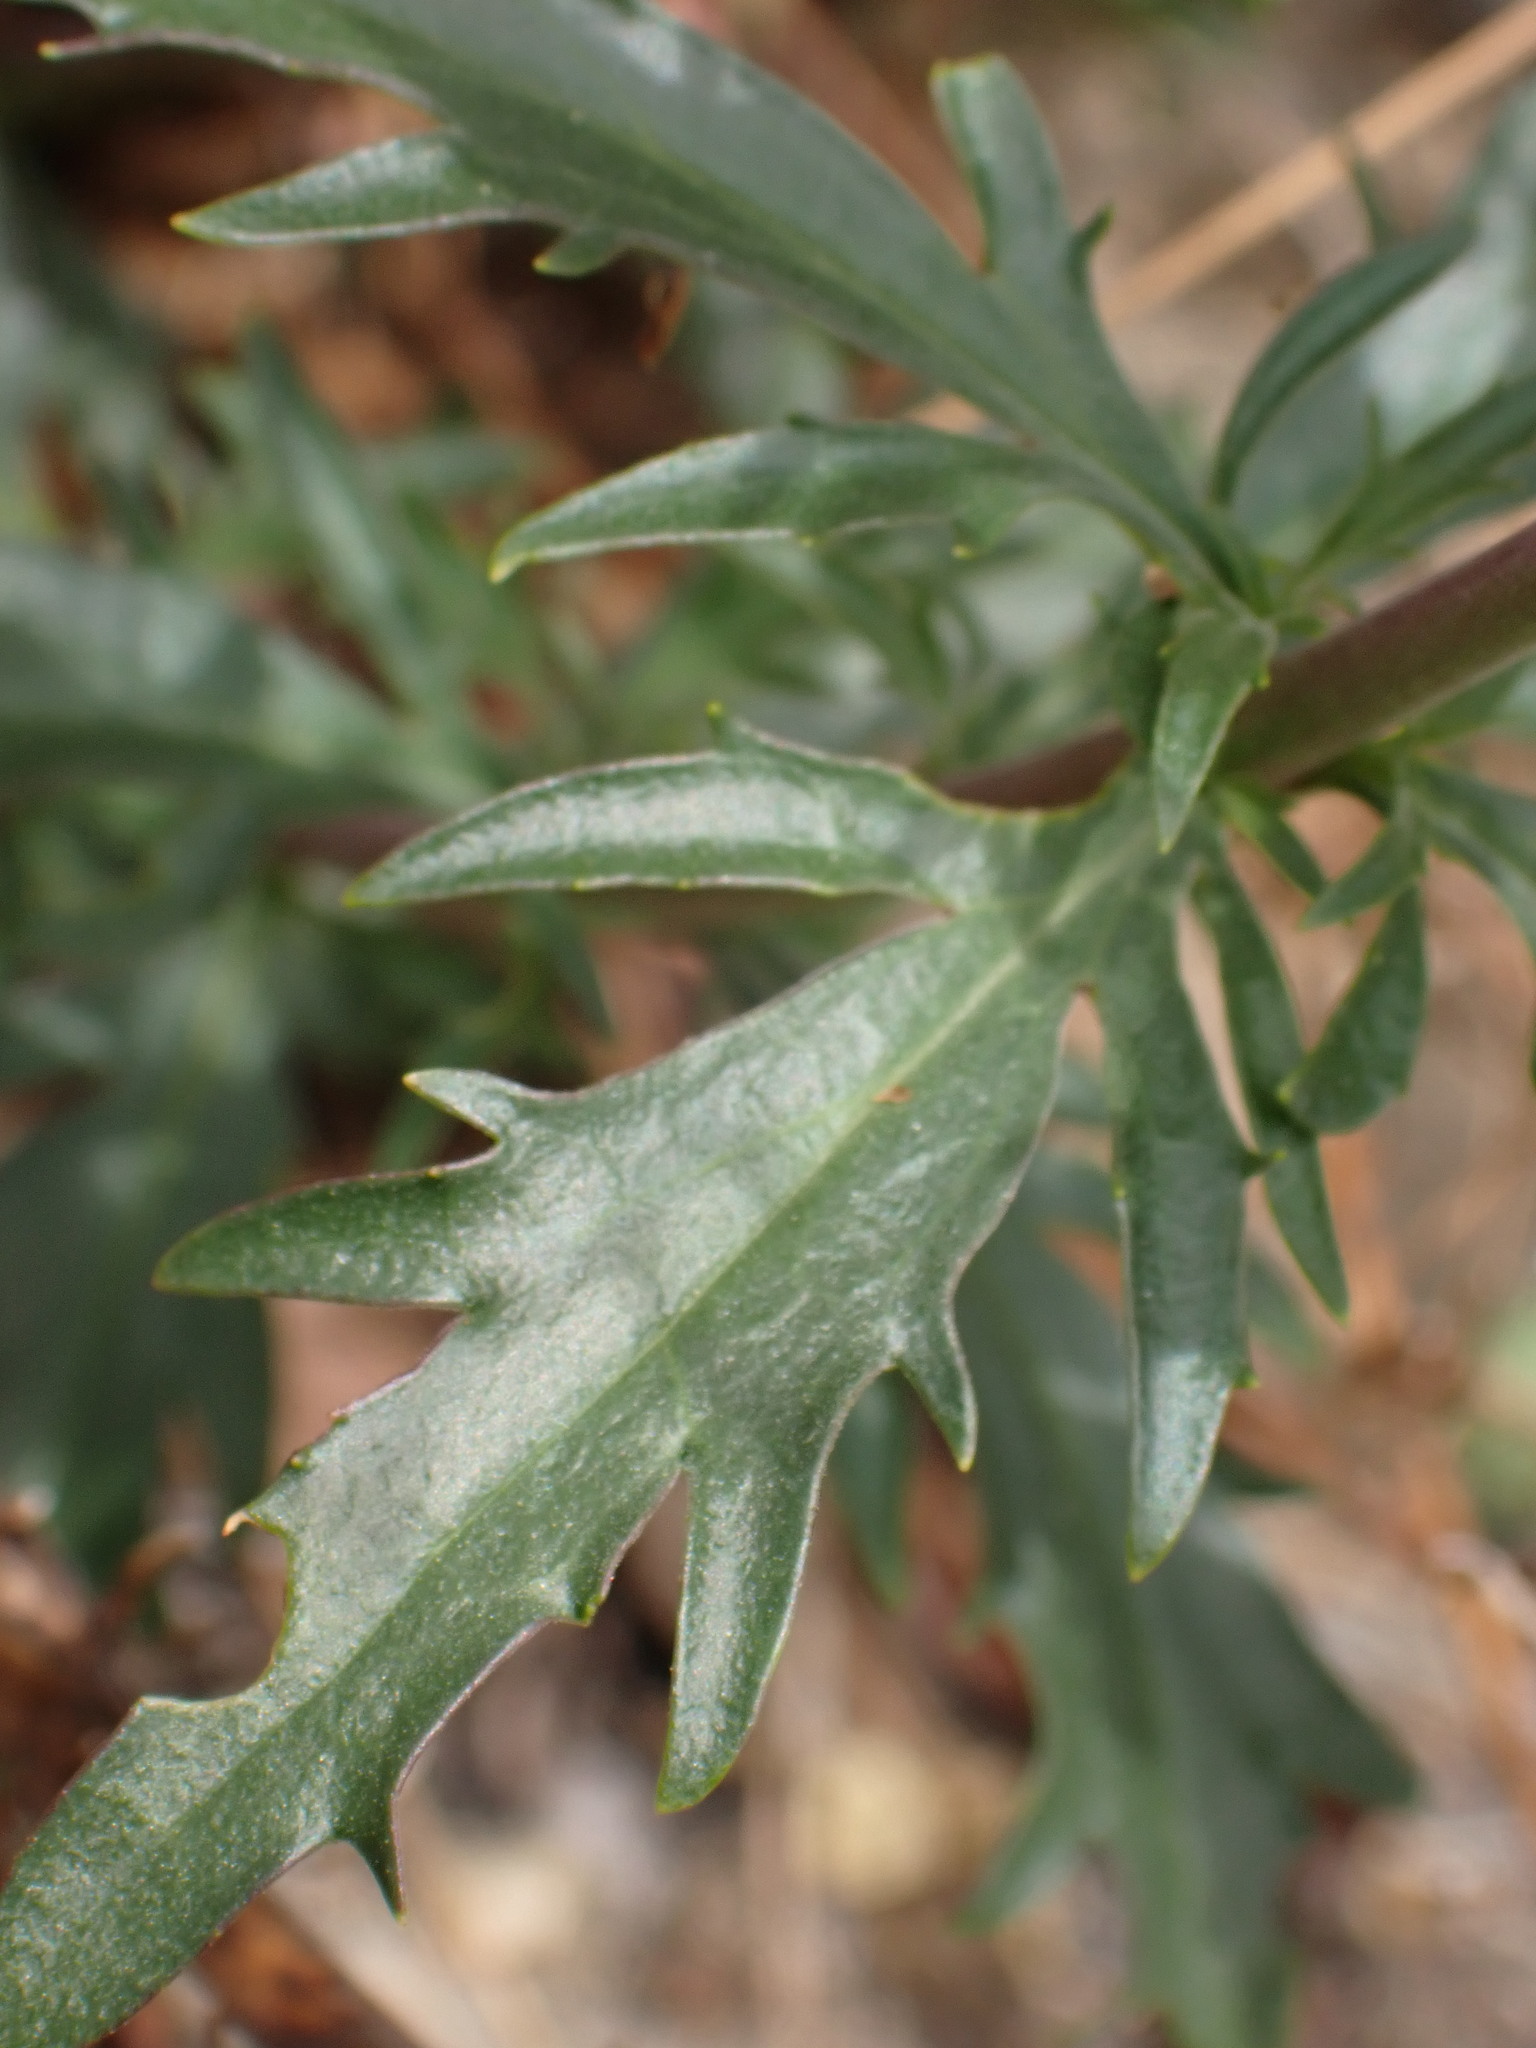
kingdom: Plantae
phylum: Tracheophyta
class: Magnoliopsida
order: Lamiales
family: Plantaginaceae
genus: Penstemon
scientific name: Penstemon richardsonii
